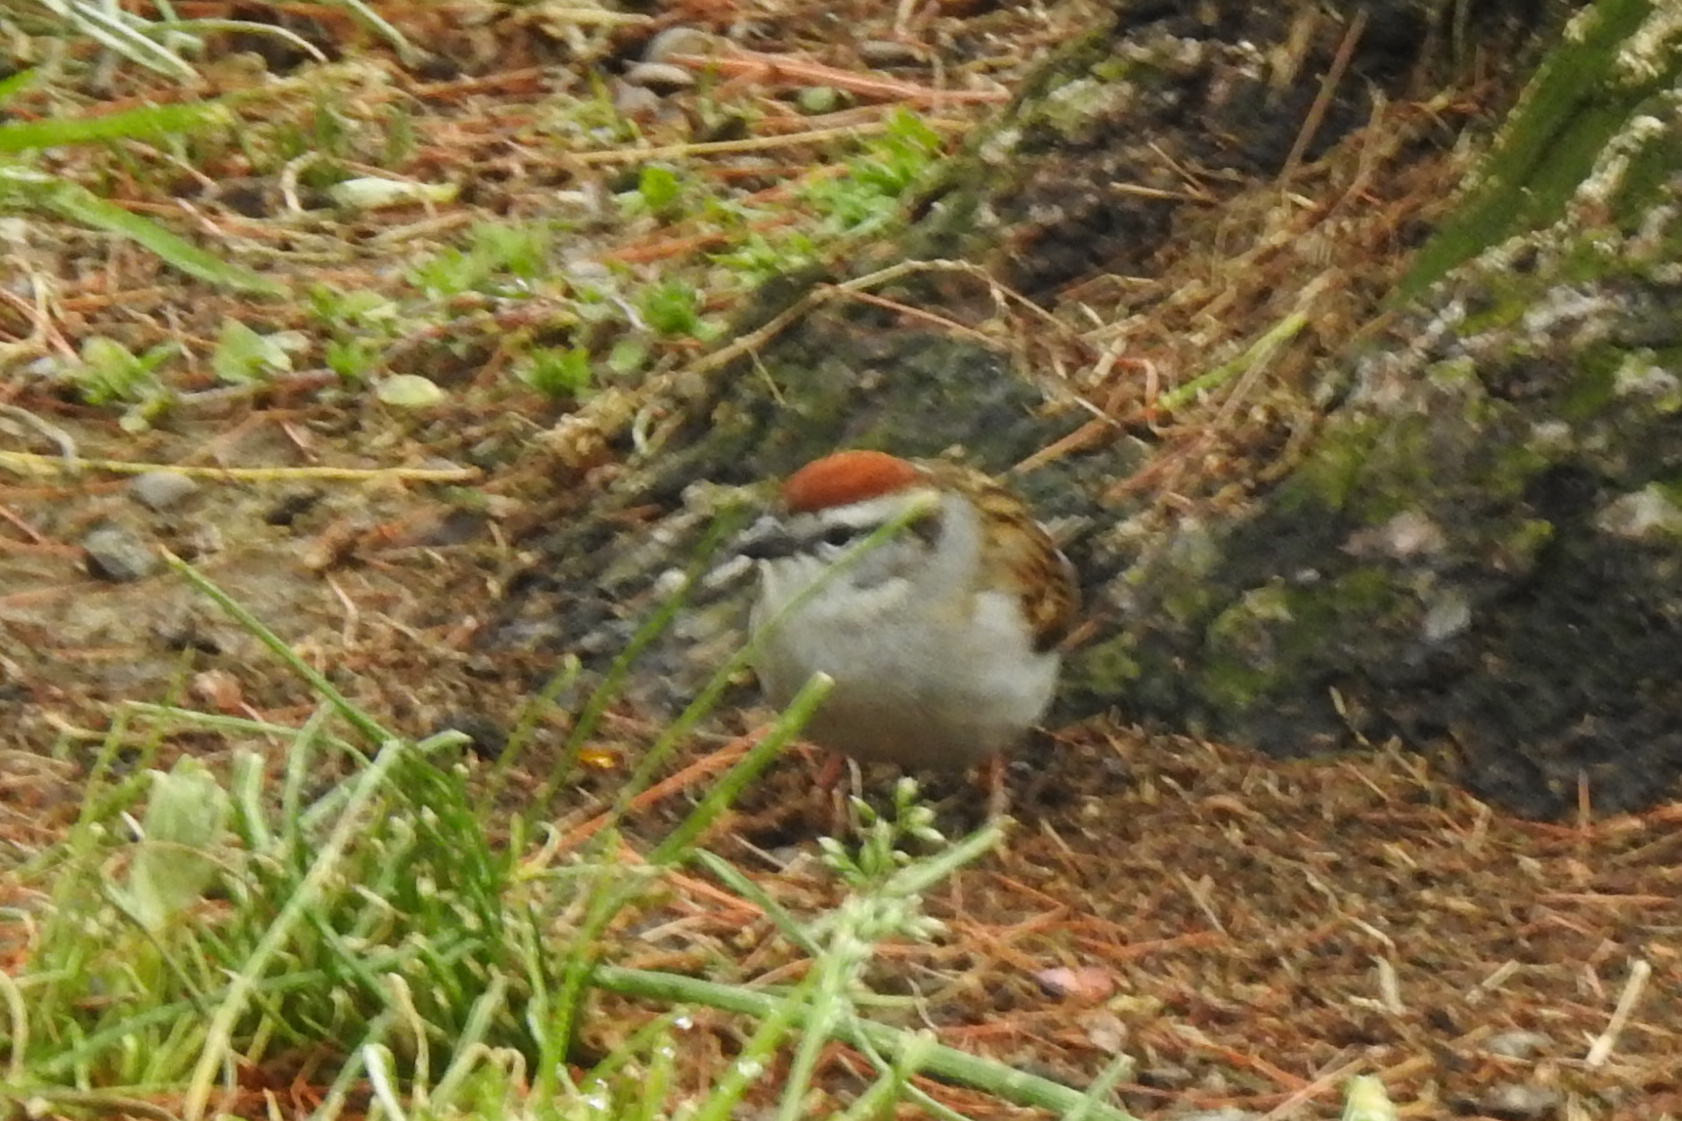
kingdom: Animalia
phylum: Chordata
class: Aves
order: Passeriformes
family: Passerellidae
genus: Spizella
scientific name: Spizella passerina
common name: Chipping sparrow
